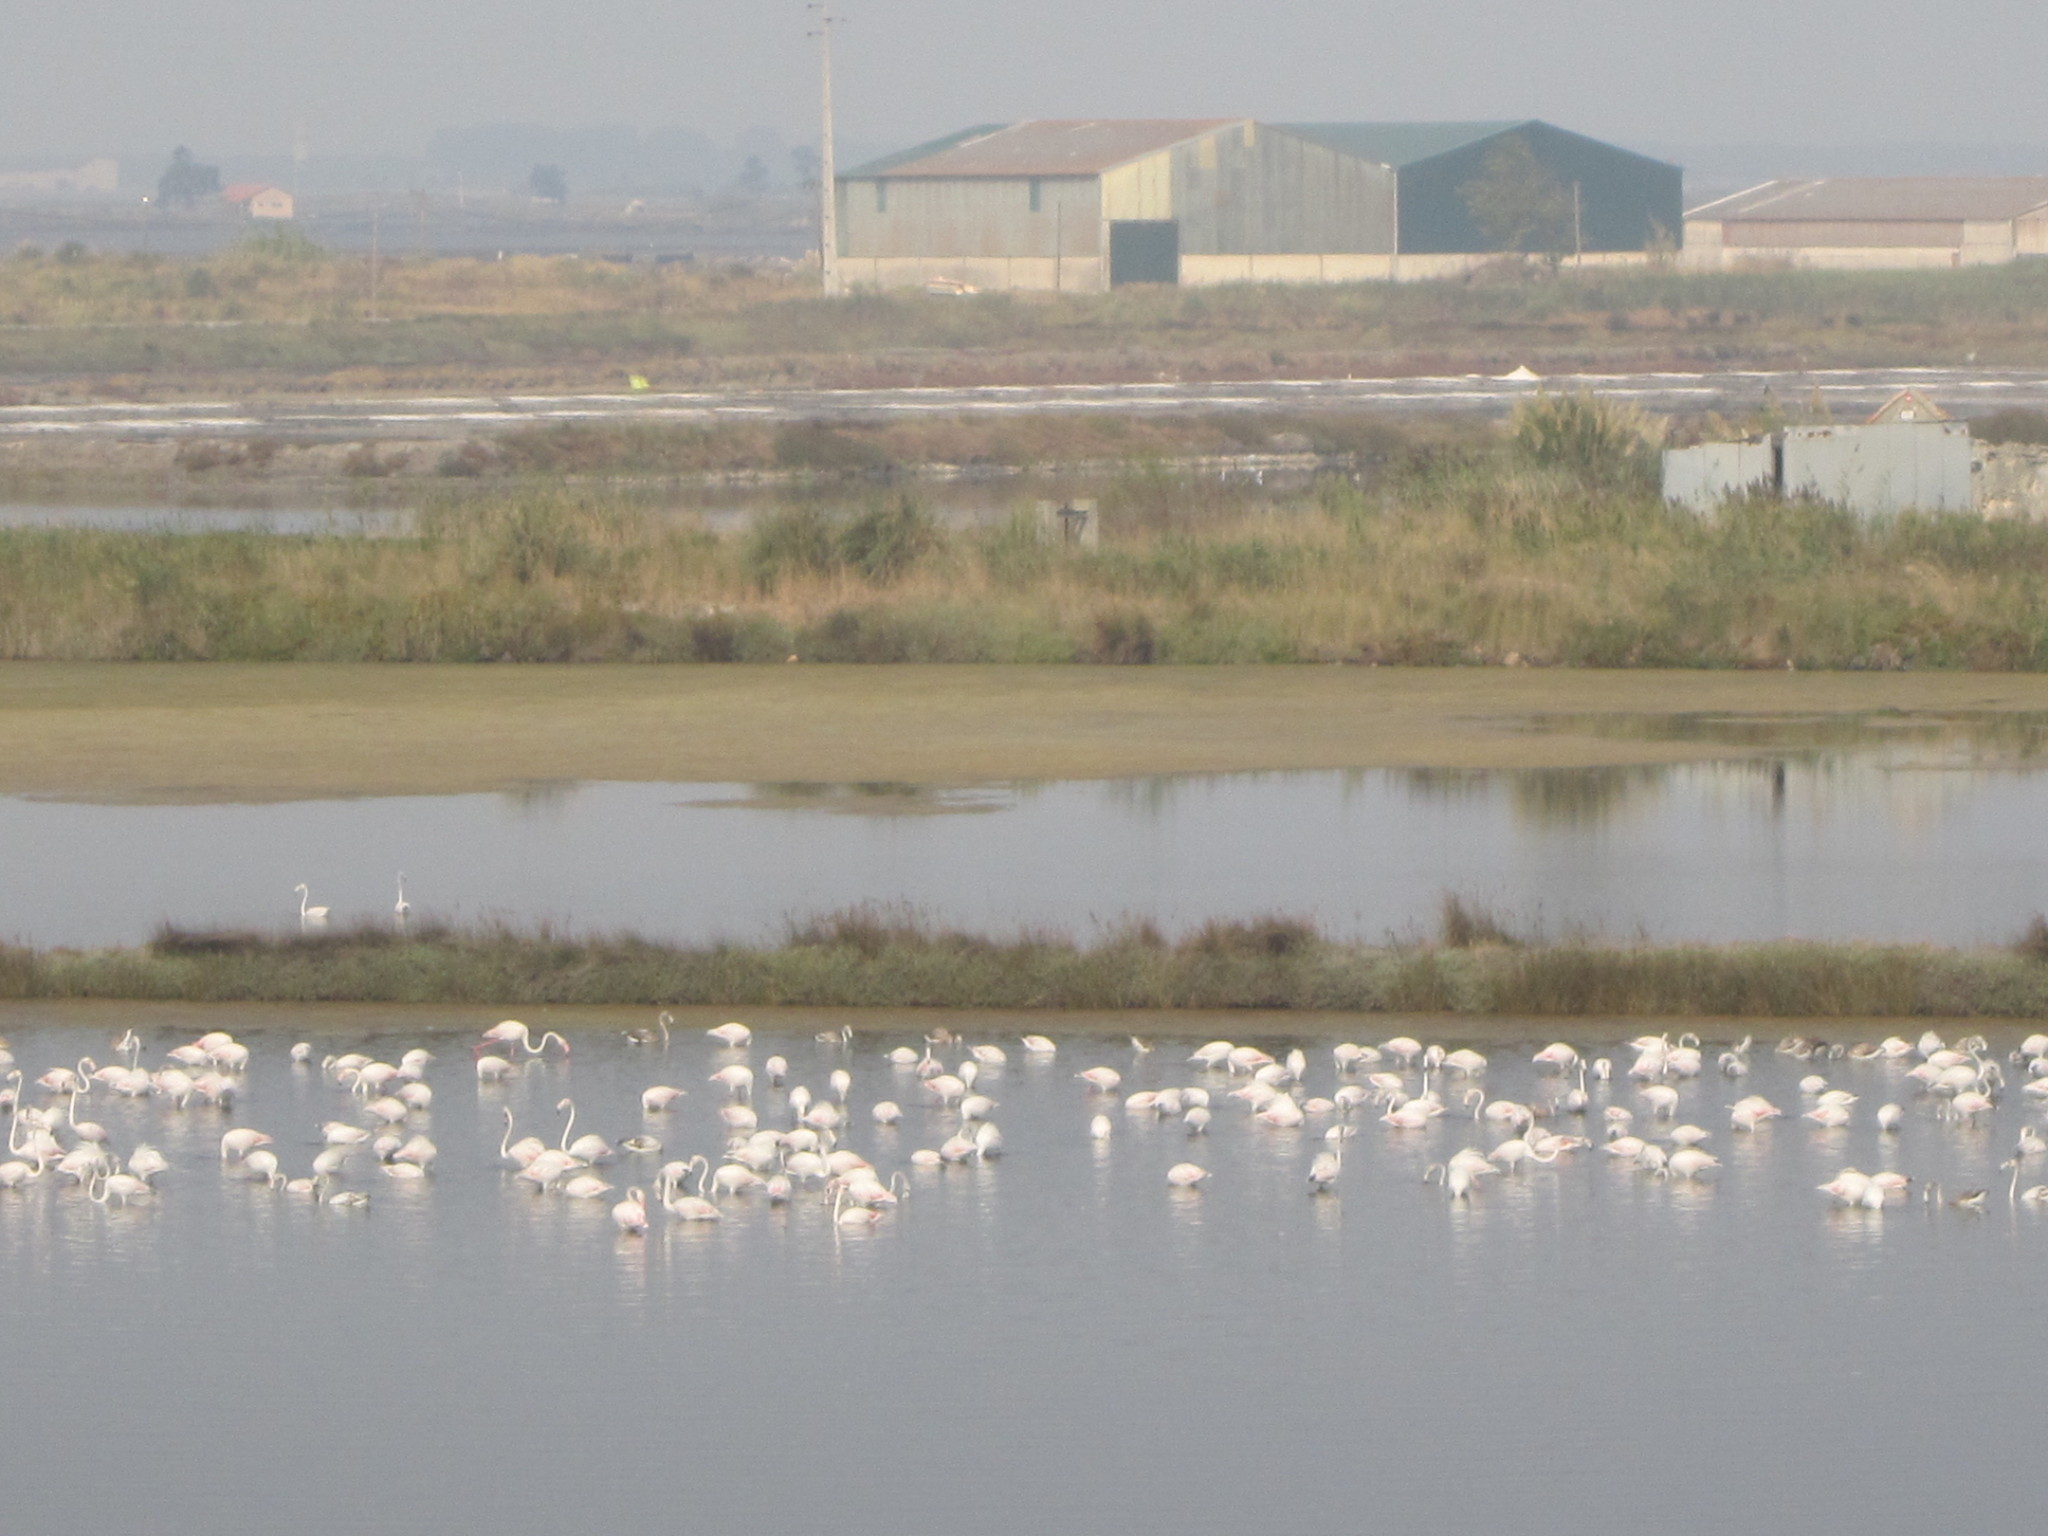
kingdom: Animalia
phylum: Chordata
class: Aves
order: Phoenicopteriformes
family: Phoenicopteridae
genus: Phoenicopterus
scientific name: Phoenicopterus roseus
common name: Greater flamingo
